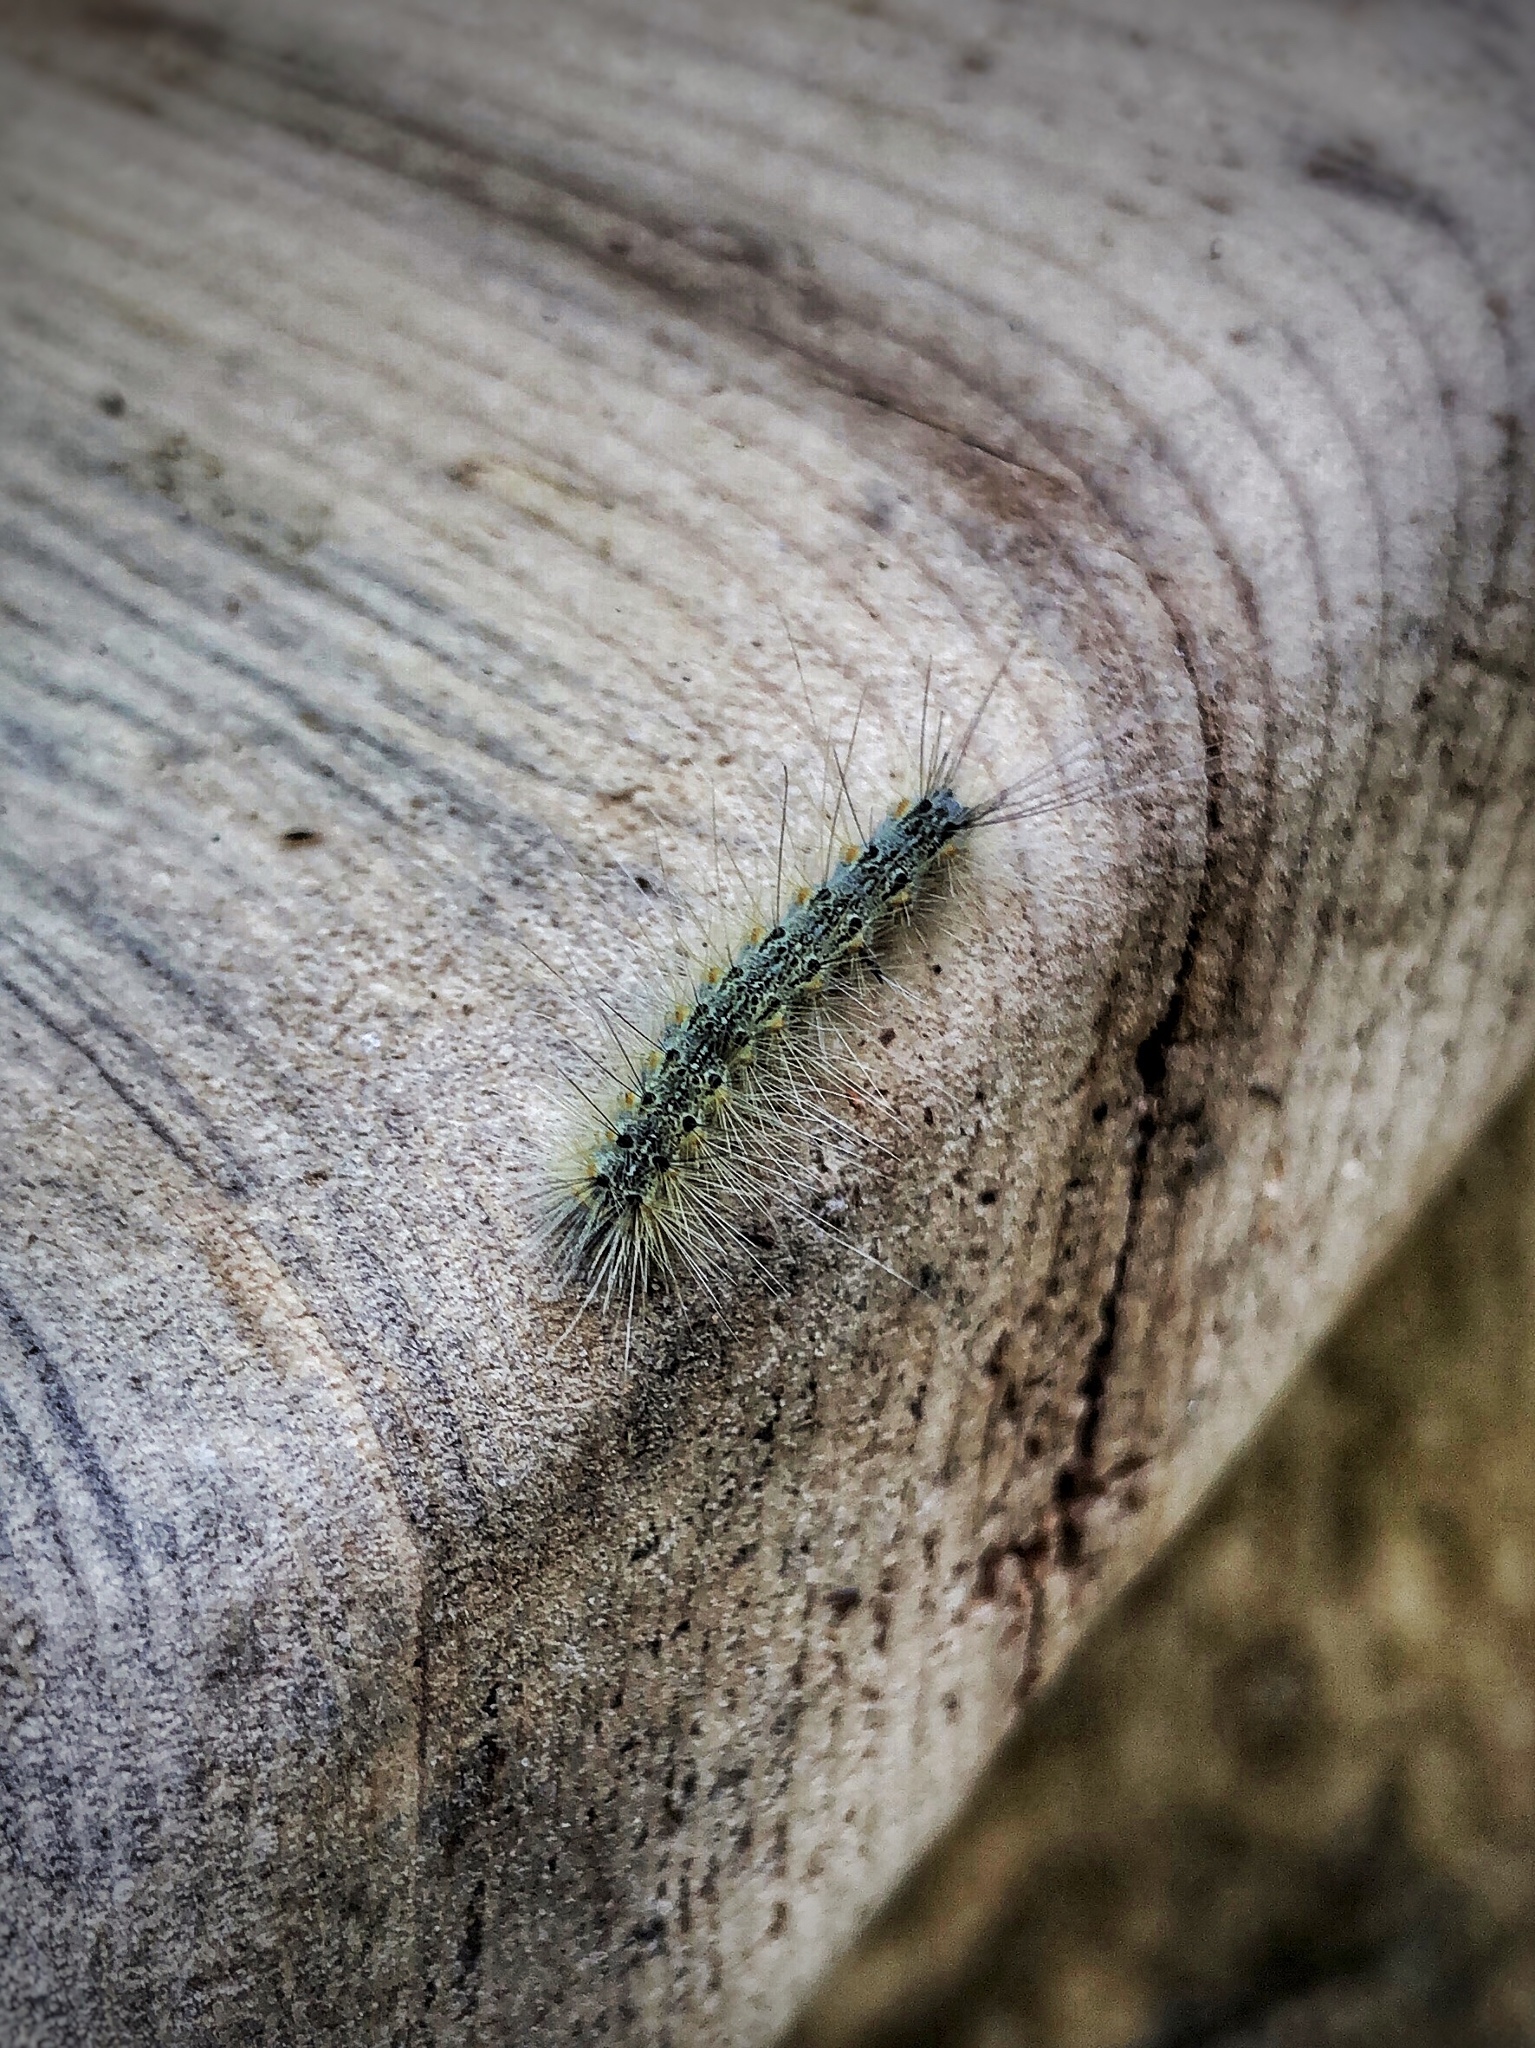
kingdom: Animalia
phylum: Arthropoda
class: Insecta
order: Lepidoptera
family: Erebidae
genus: Hyphantria
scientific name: Hyphantria cunea
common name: American white moth
